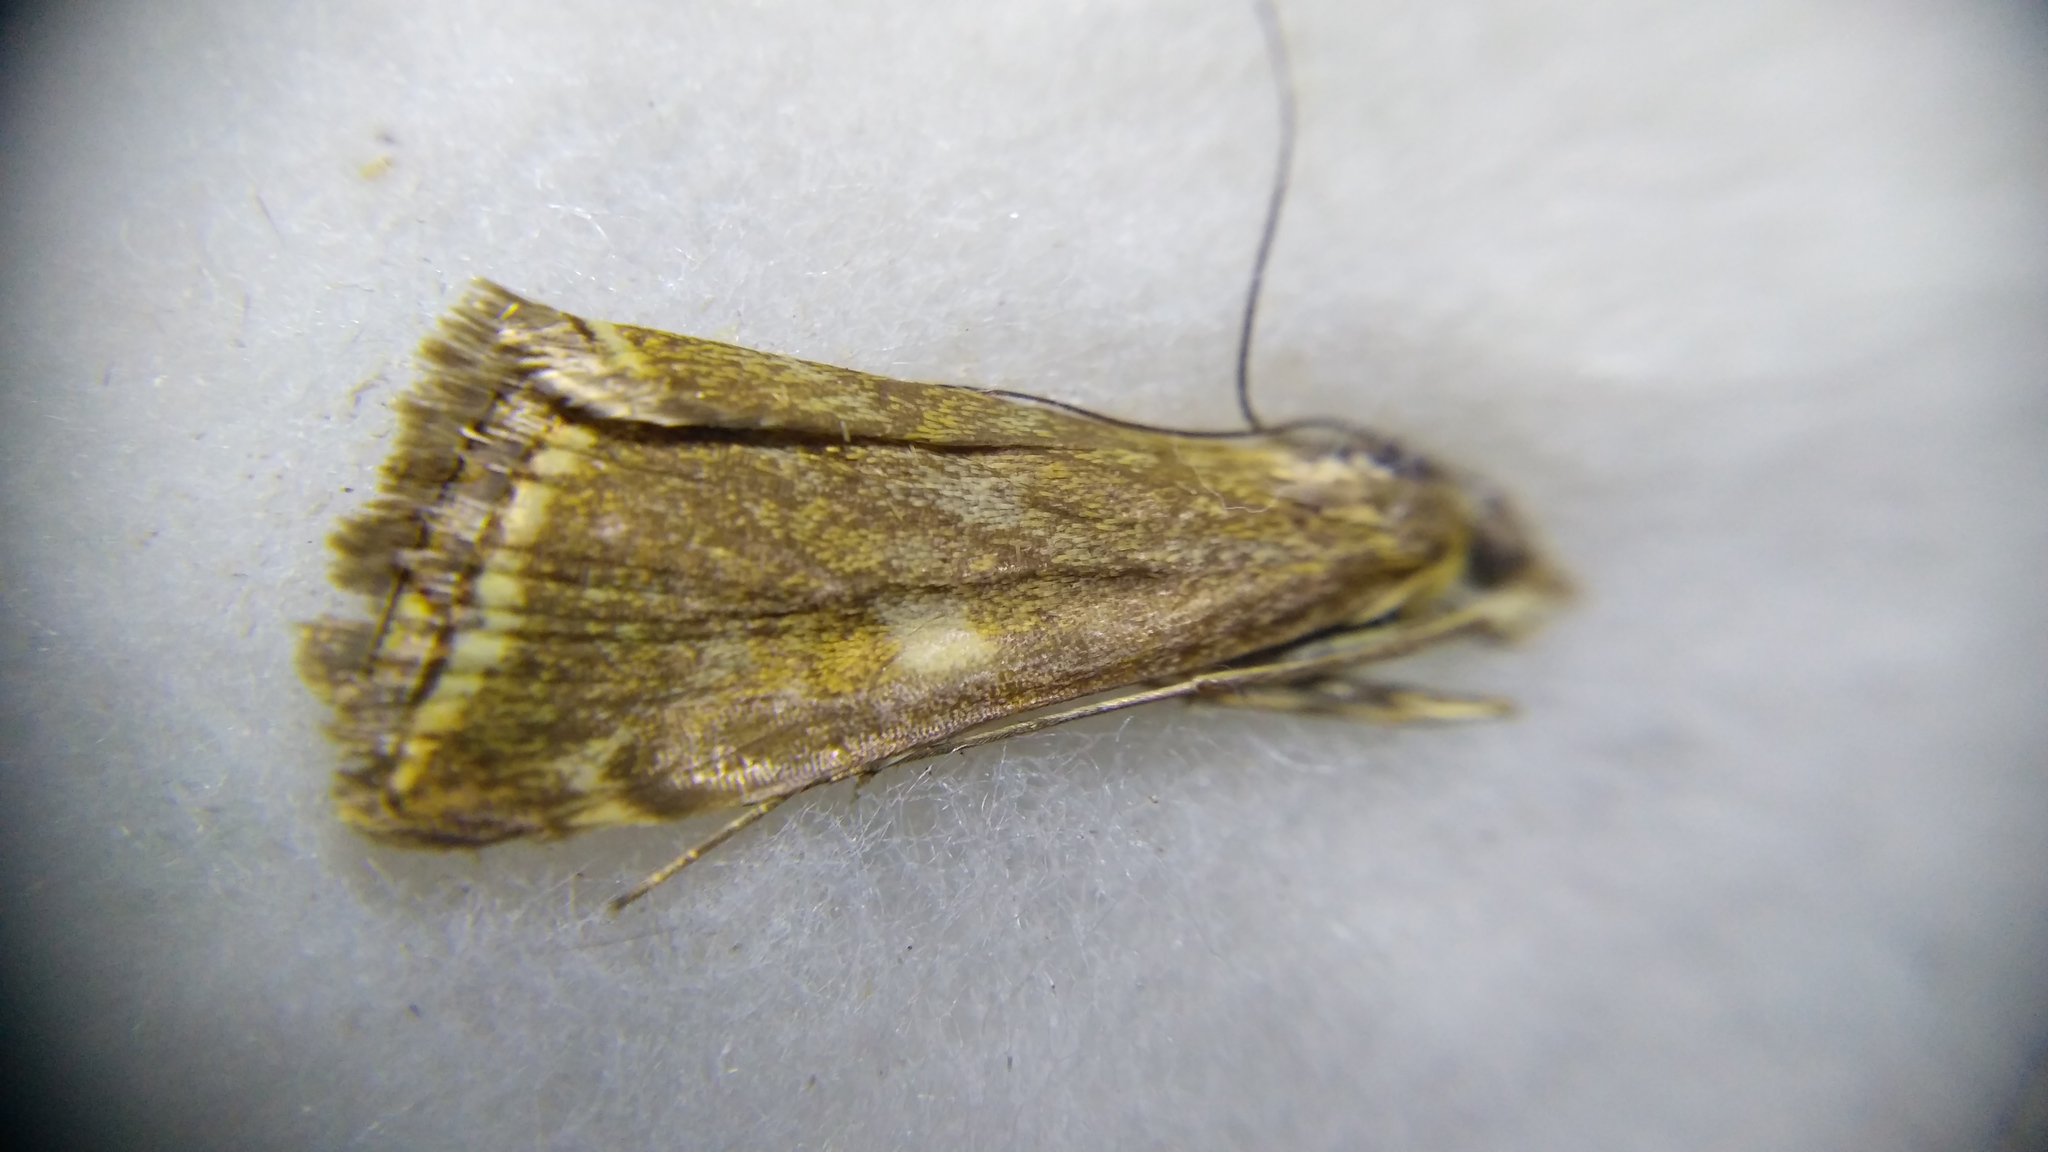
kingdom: Animalia
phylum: Arthropoda
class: Insecta
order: Lepidoptera
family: Crambidae
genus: Loxostege
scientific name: Loxostege sticticalis
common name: Crambid moth
